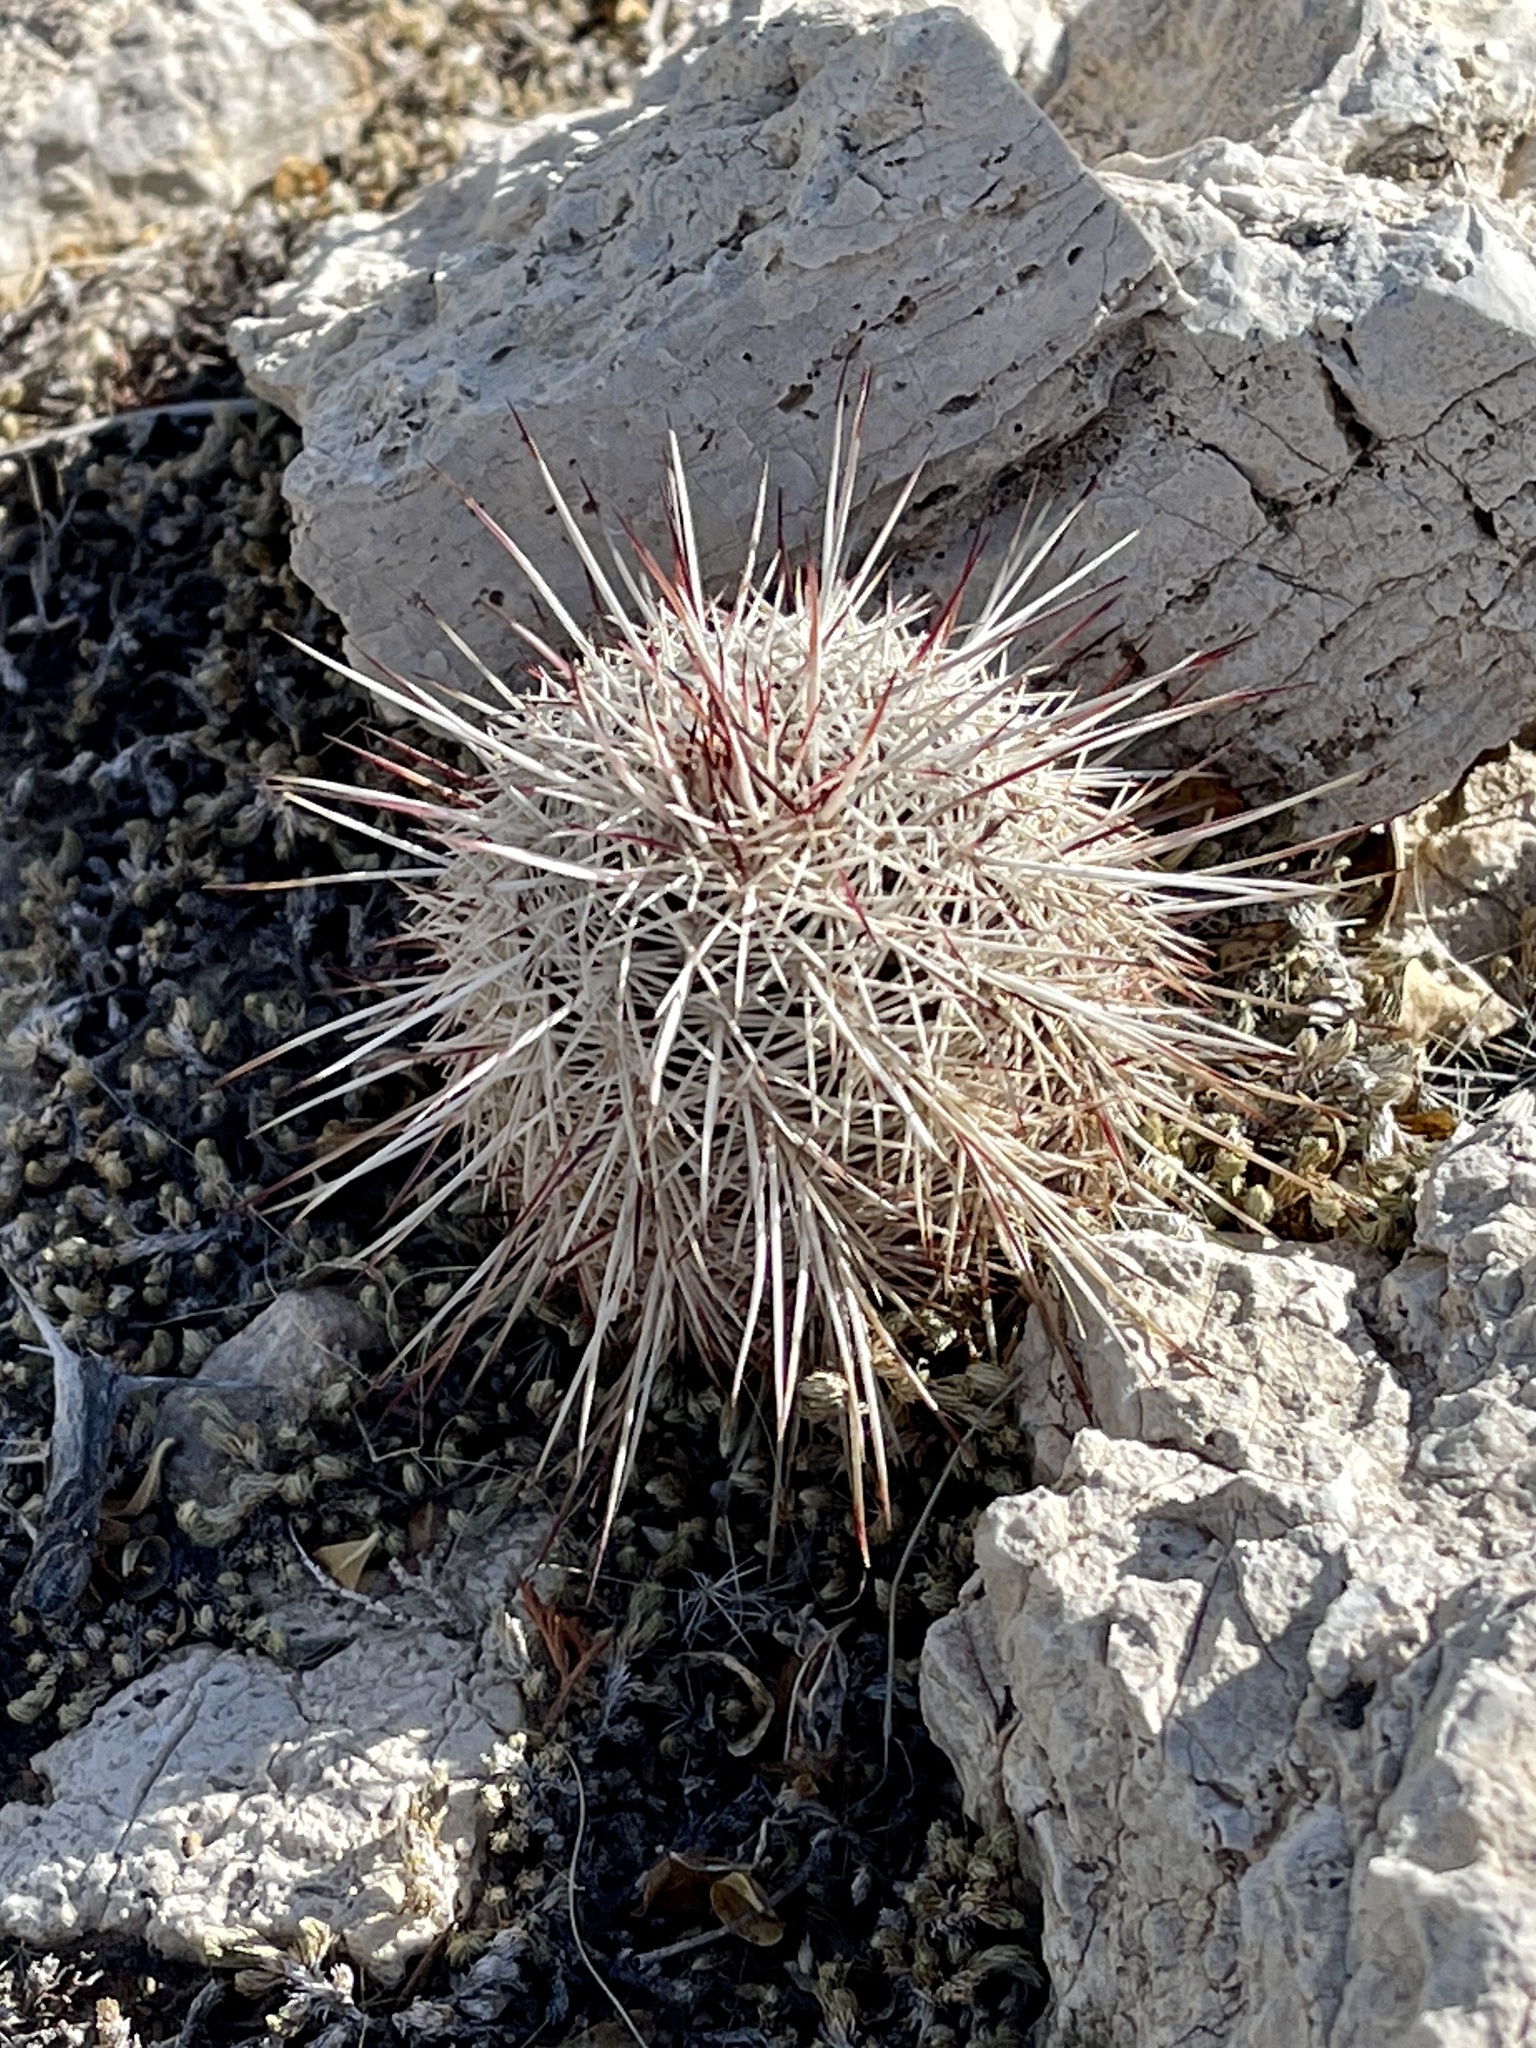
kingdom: Plantae
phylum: Tracheophyta
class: Magnoliopsida
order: Caryophyllales
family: Cactaceae
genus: Echinocereus
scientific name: Echinocereus viridiflorus
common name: Nylon hedgehog cactus
